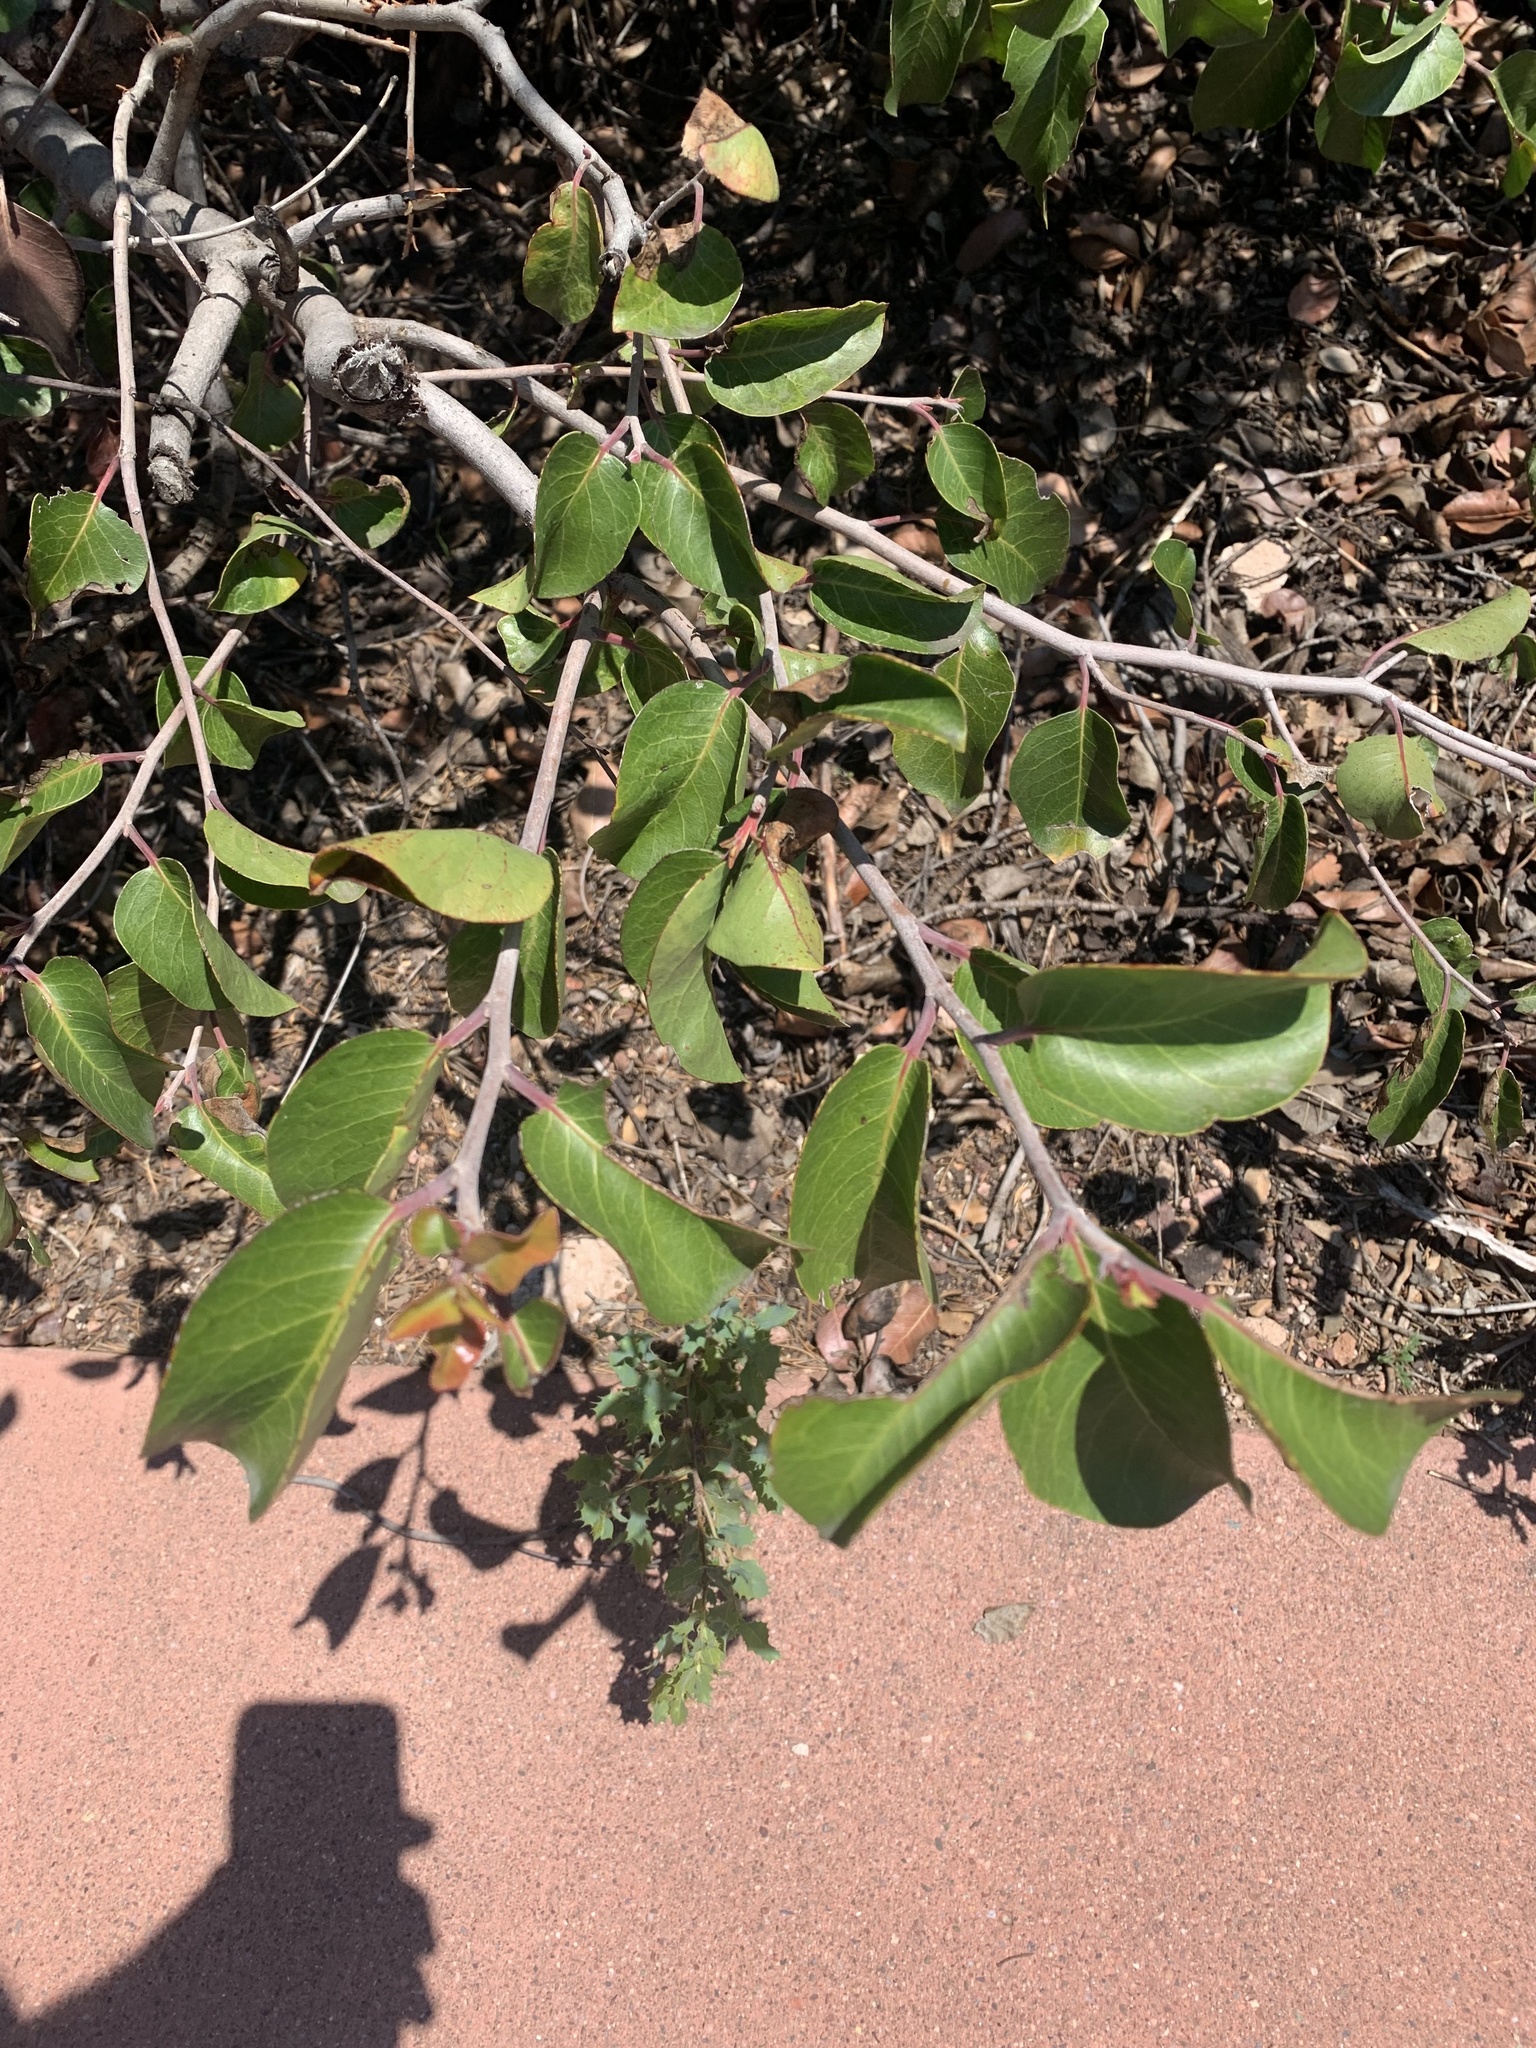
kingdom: Plantae
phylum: Tracheophyta
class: Magnoliopsida
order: Sapindales
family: Anacardiaceae
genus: Rhus
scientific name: Rhus ovata
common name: Sugar sumac
